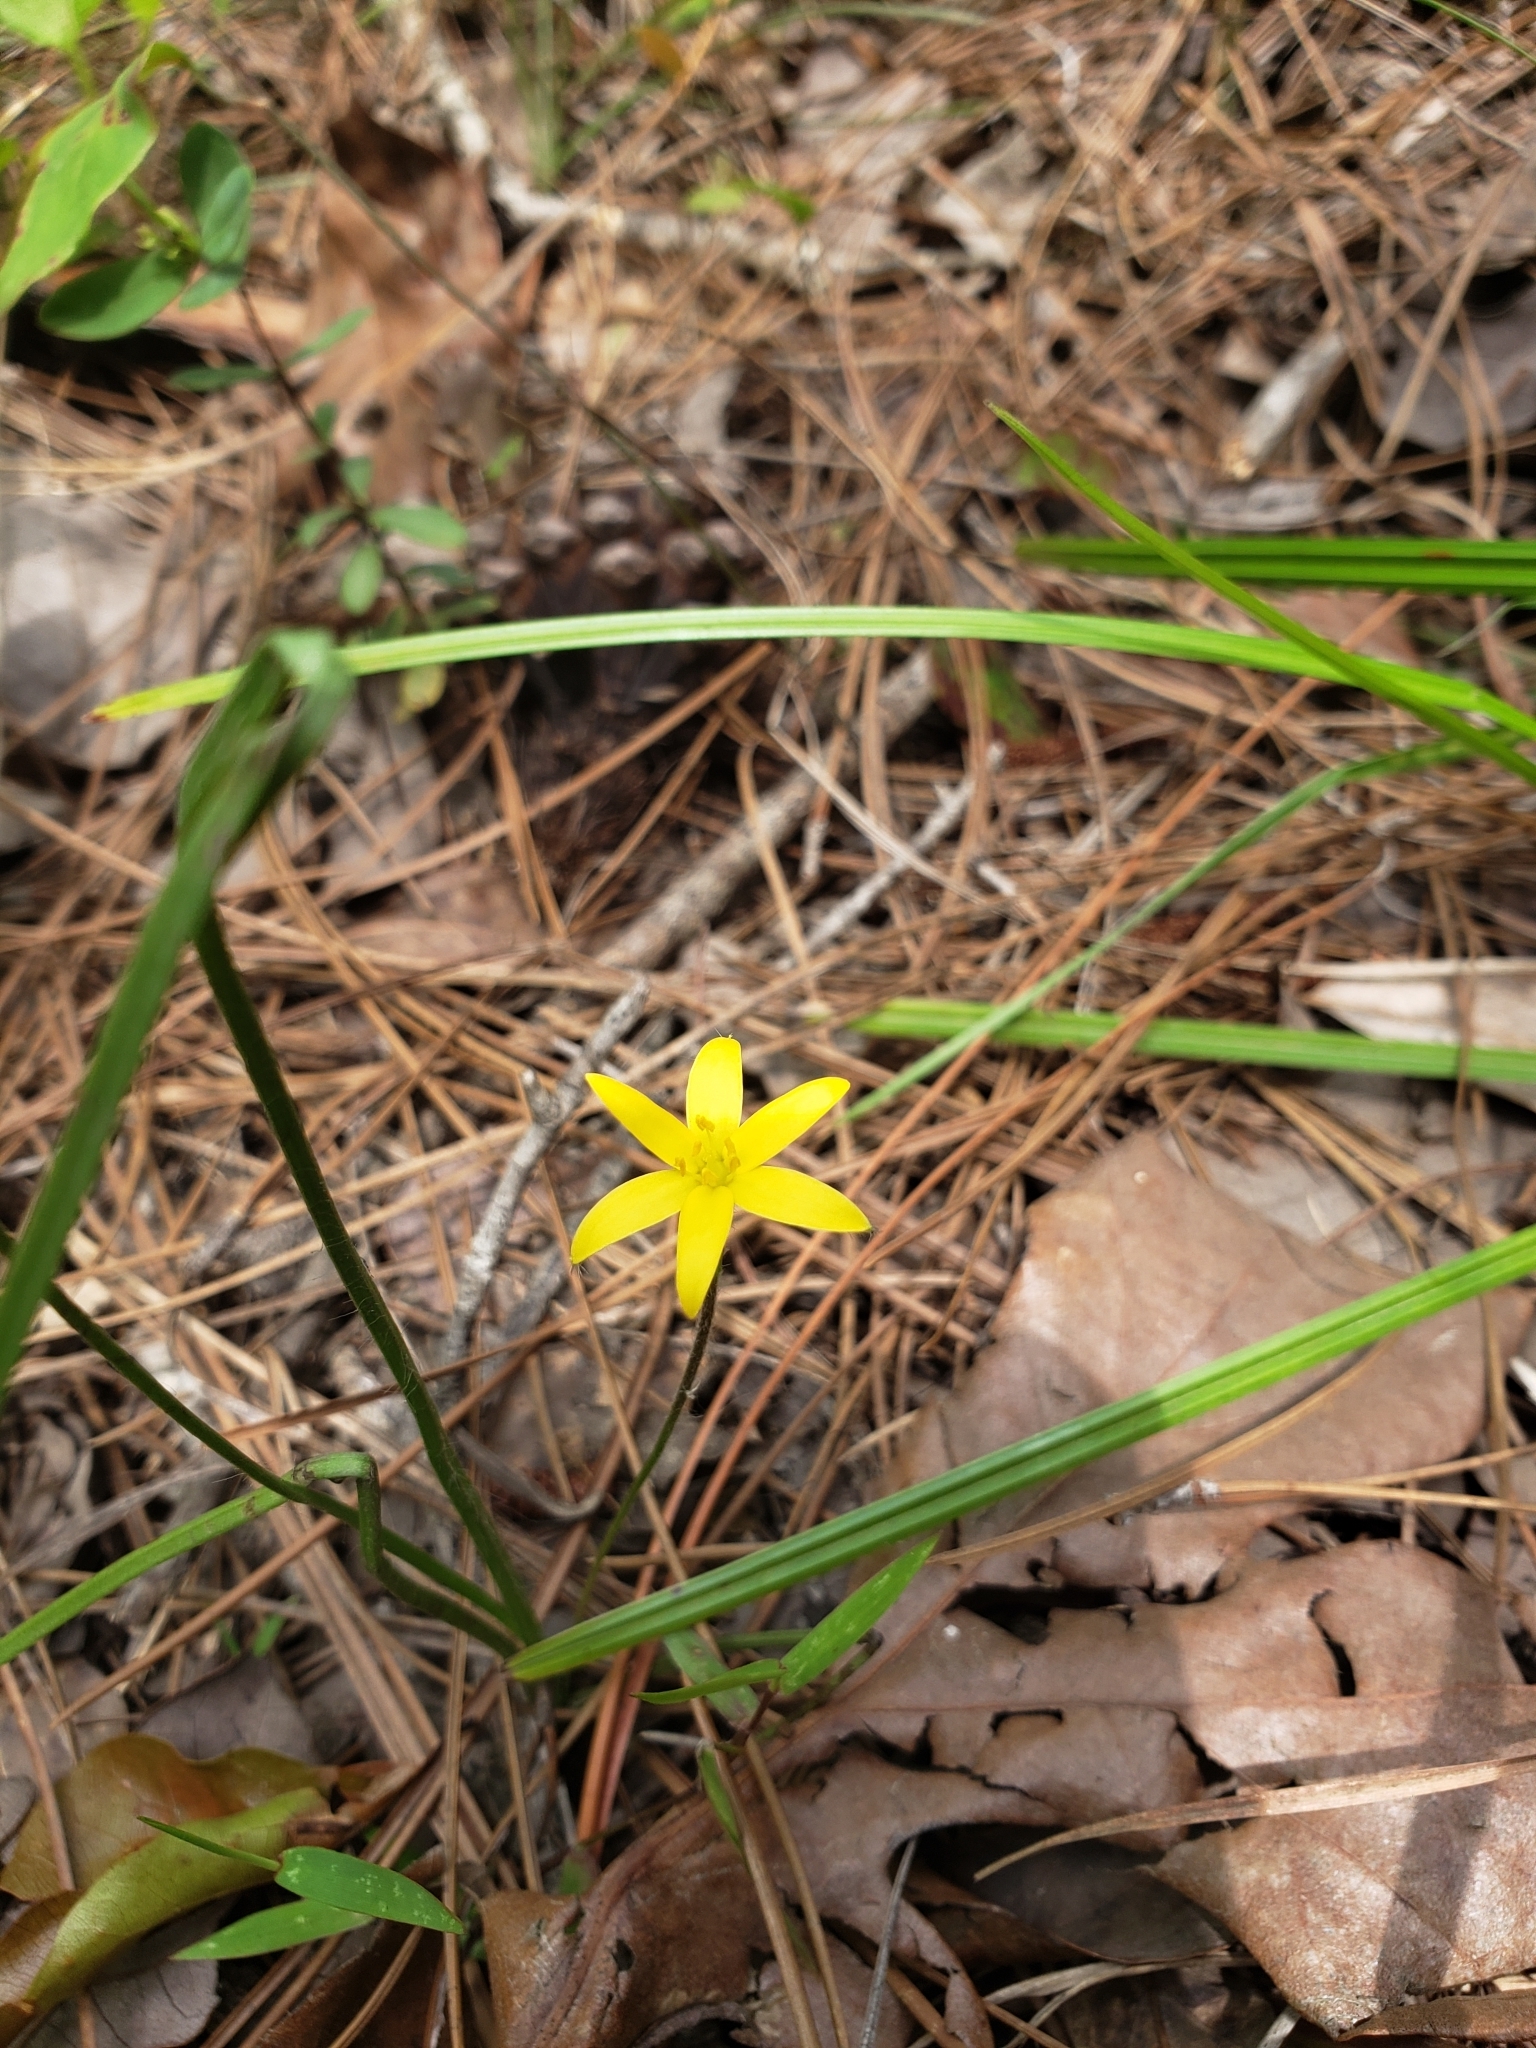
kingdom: Plantae
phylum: Tracheophyta
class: Liliopsida
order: Asparagales
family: Hypoxidaceae
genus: Hypoxis
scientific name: Hypoxis hirsuta
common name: Common goldstar
